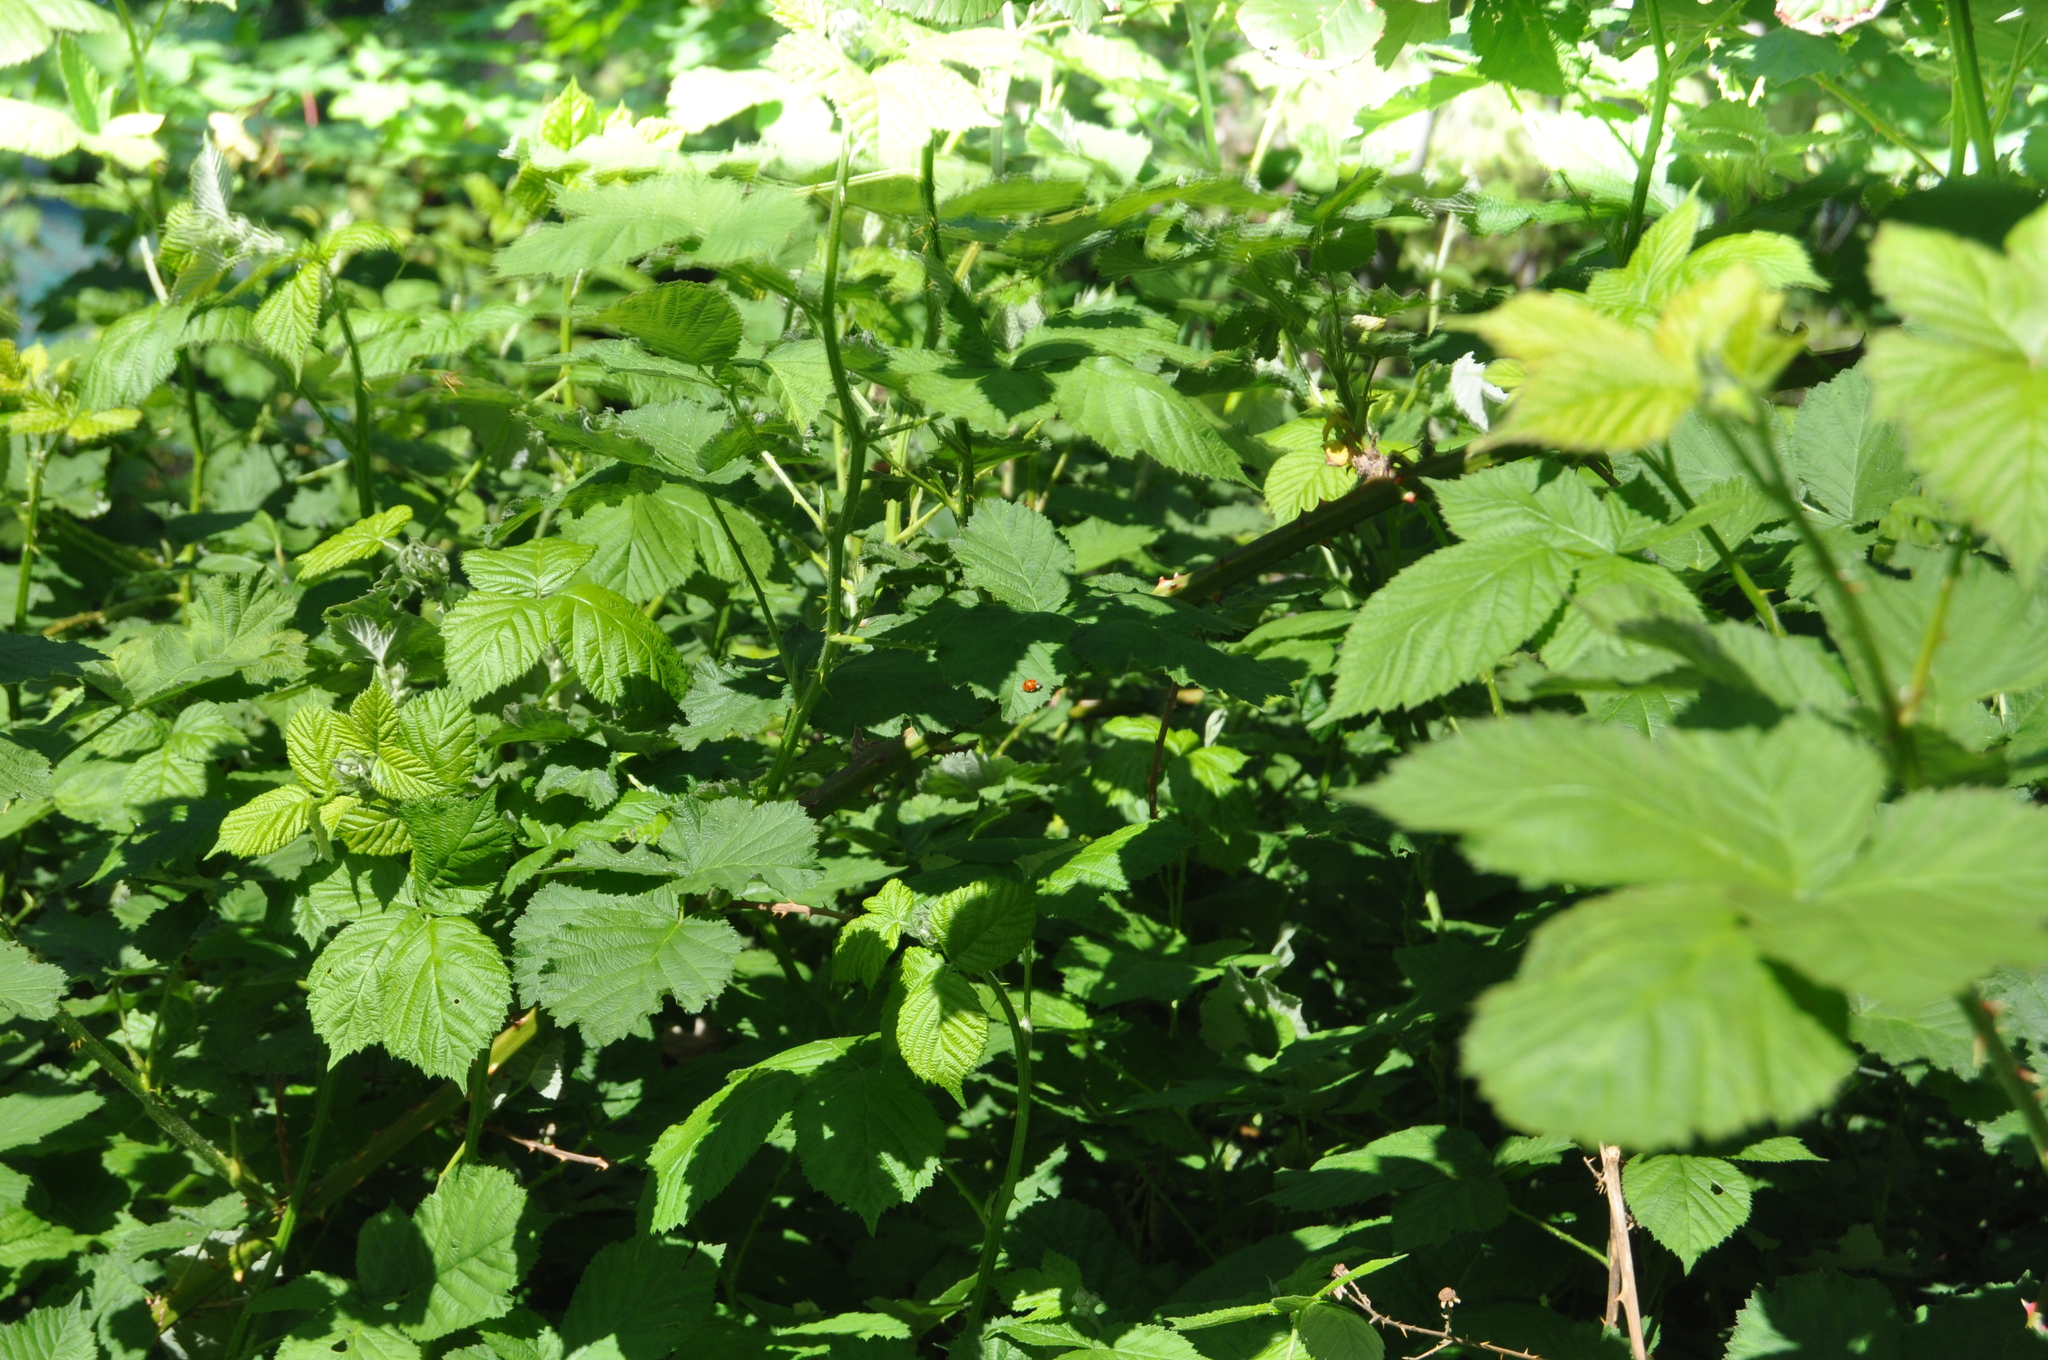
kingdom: Animalia
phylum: Arthropoda
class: Insecta
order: Coleoptera
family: Coccinellidae
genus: Harmonia
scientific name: Harmonia axyridis
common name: Harlequin ladybird
